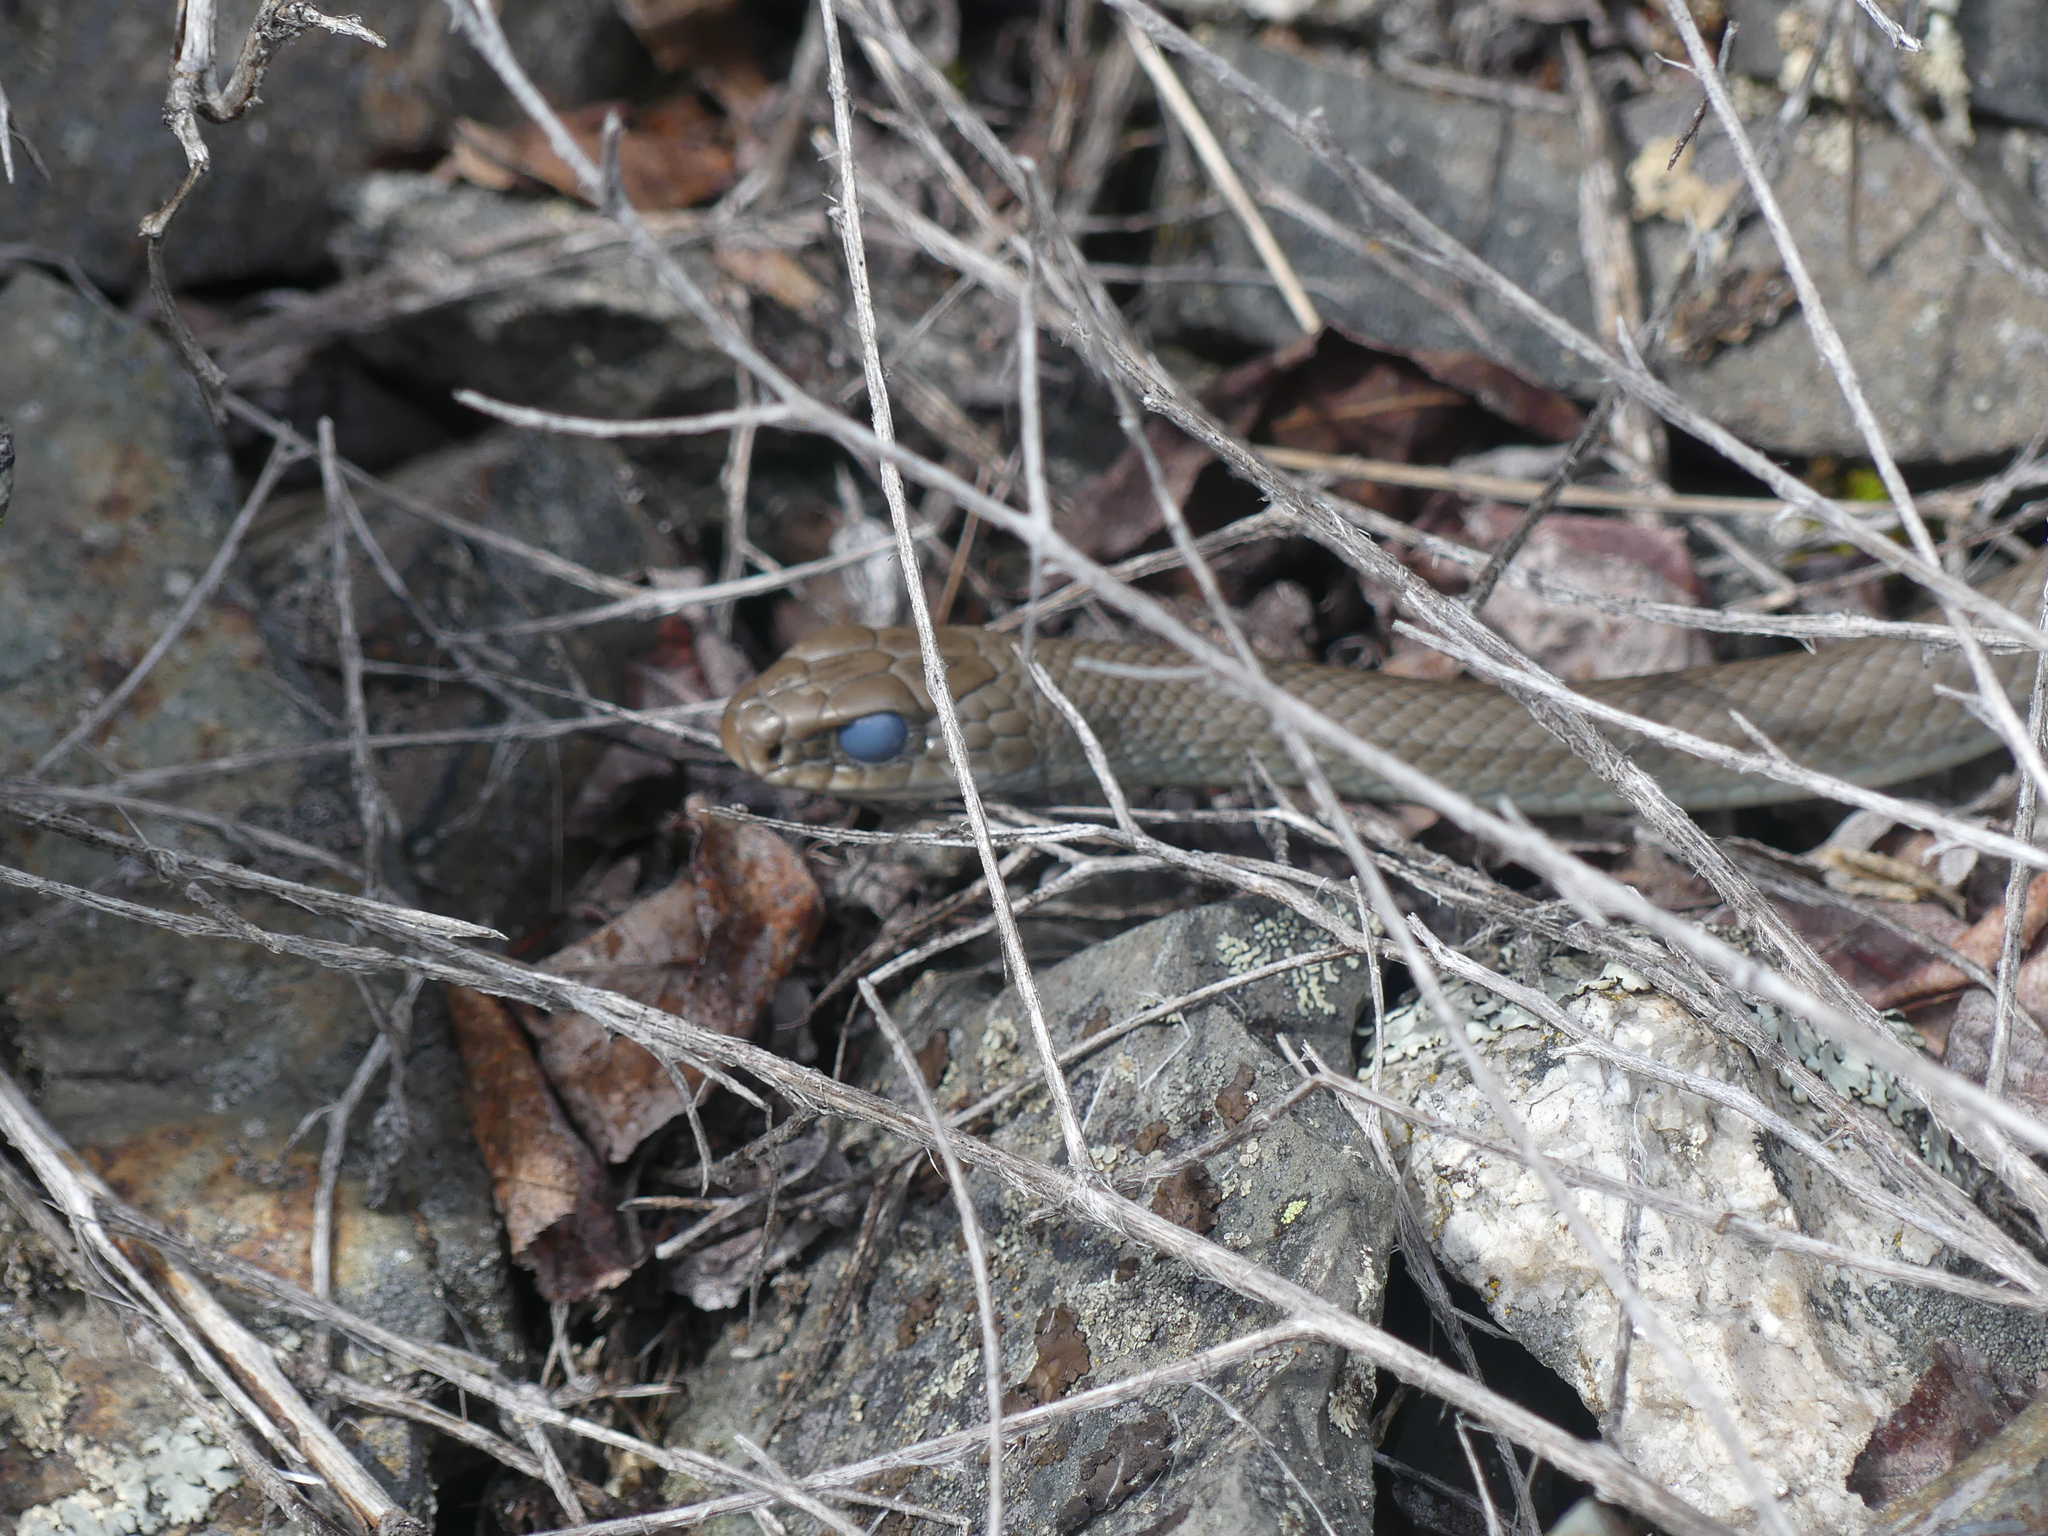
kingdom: Animalia
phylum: Chordata
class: Squamata
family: Colubridae
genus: Coluber
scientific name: Coluber constrictor
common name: Eastern racer
